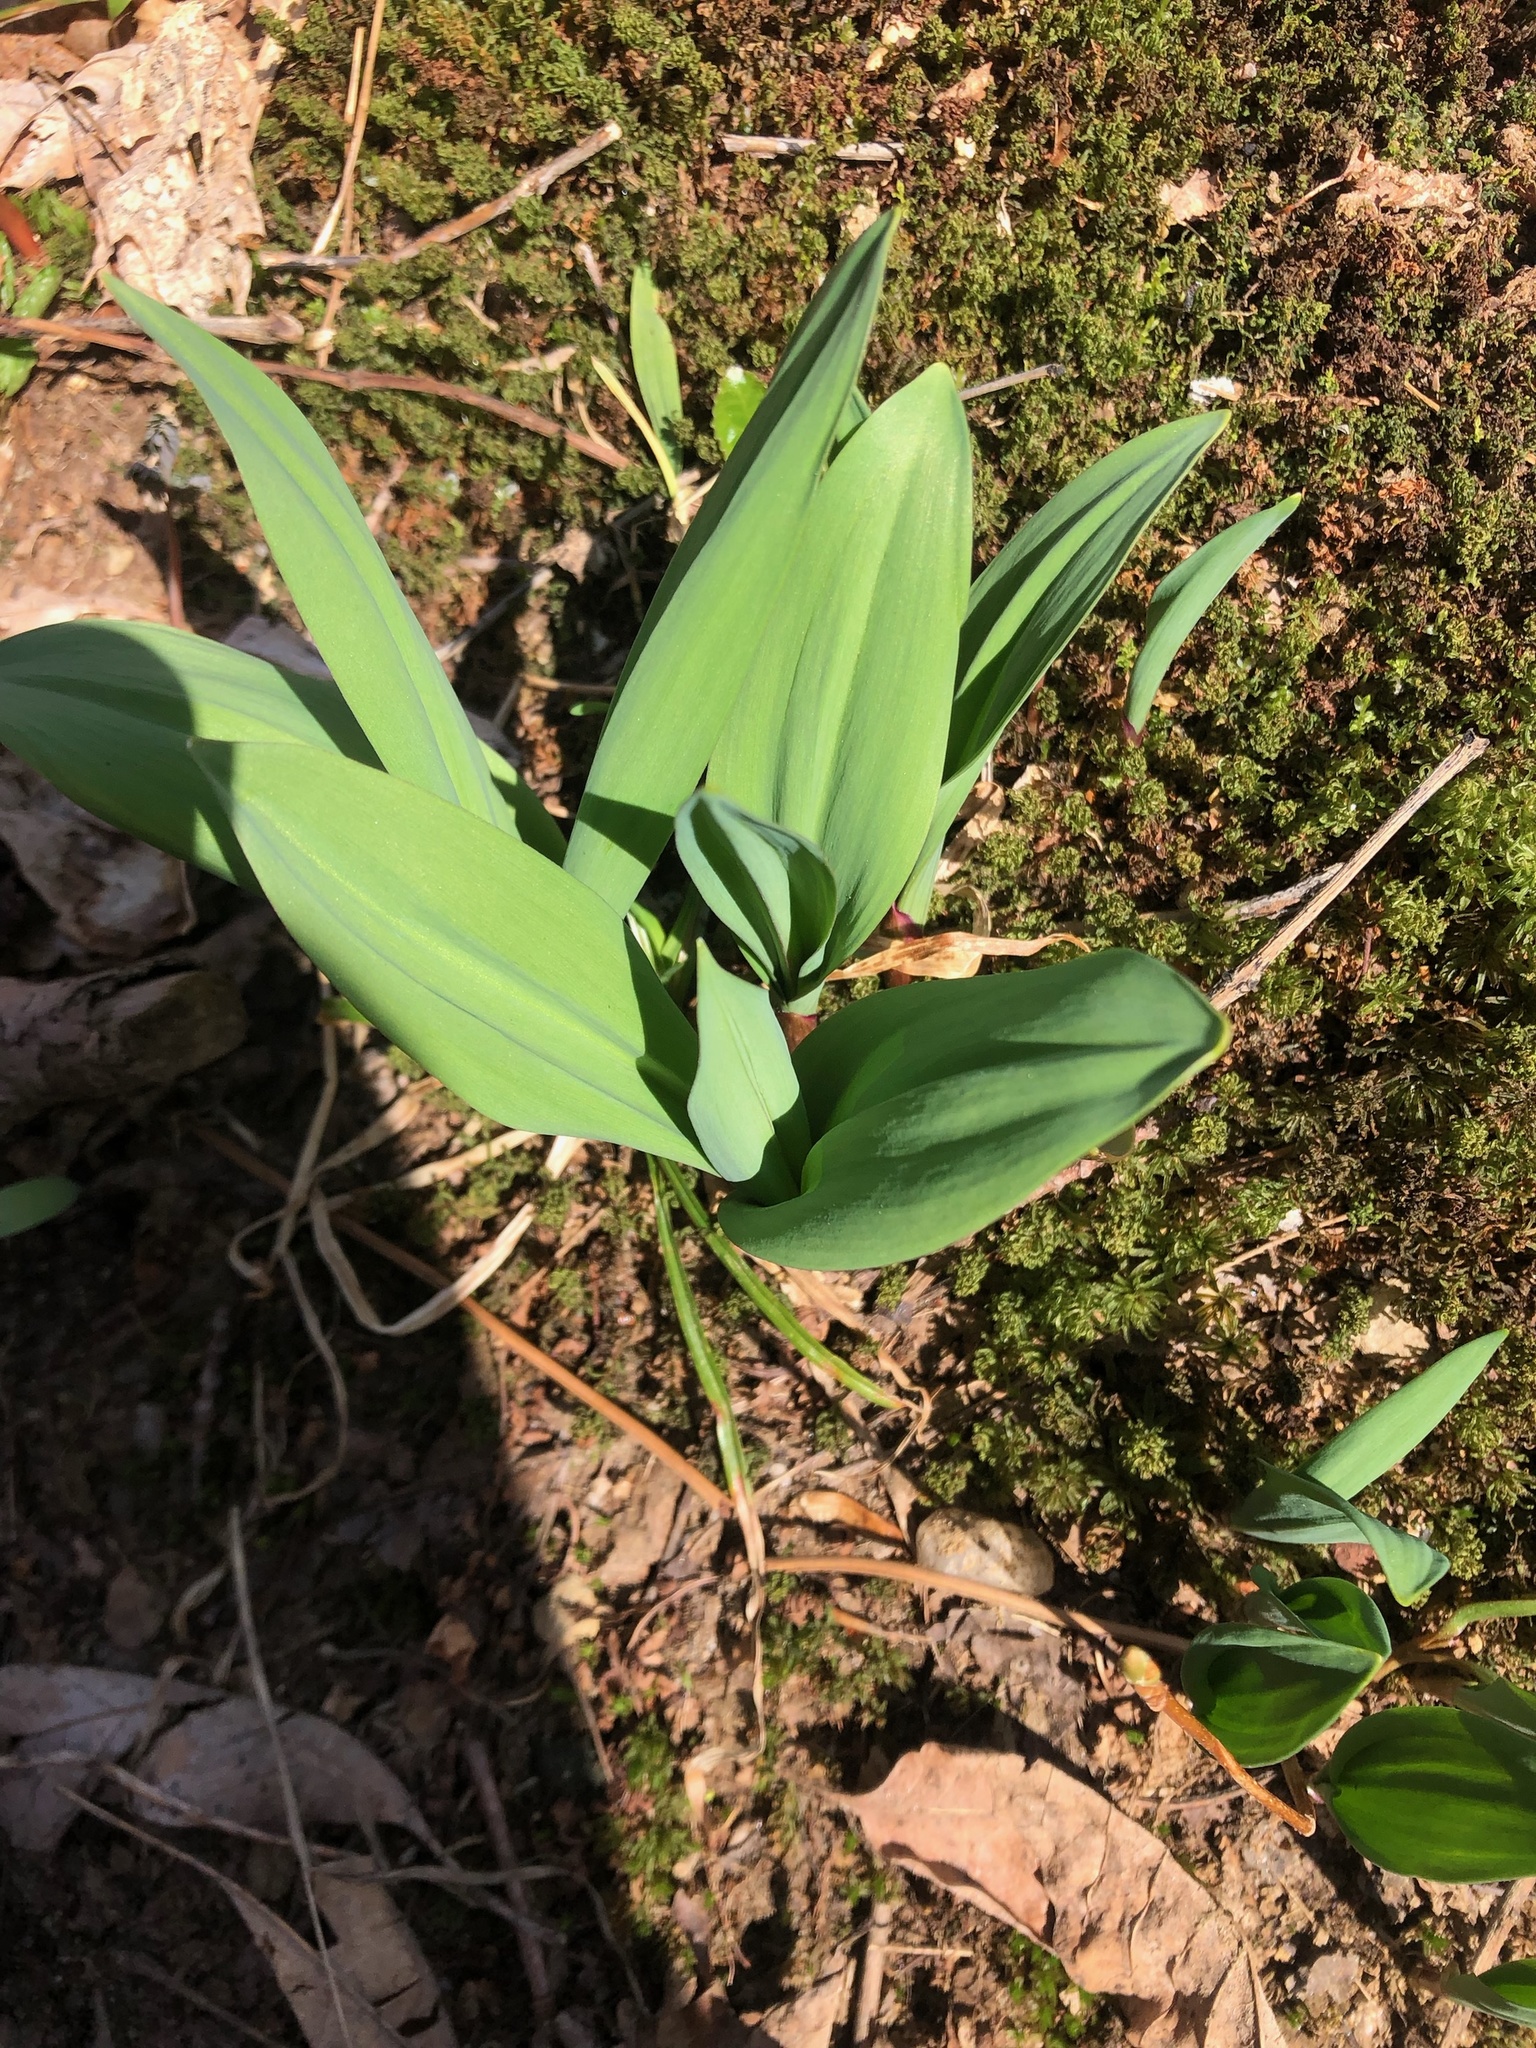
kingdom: Plantae
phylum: Tracheophyta
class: Liliopsida
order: Asparagales
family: Amaryllidaceae
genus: Allium
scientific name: Allium tricoccum
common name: Ramp
